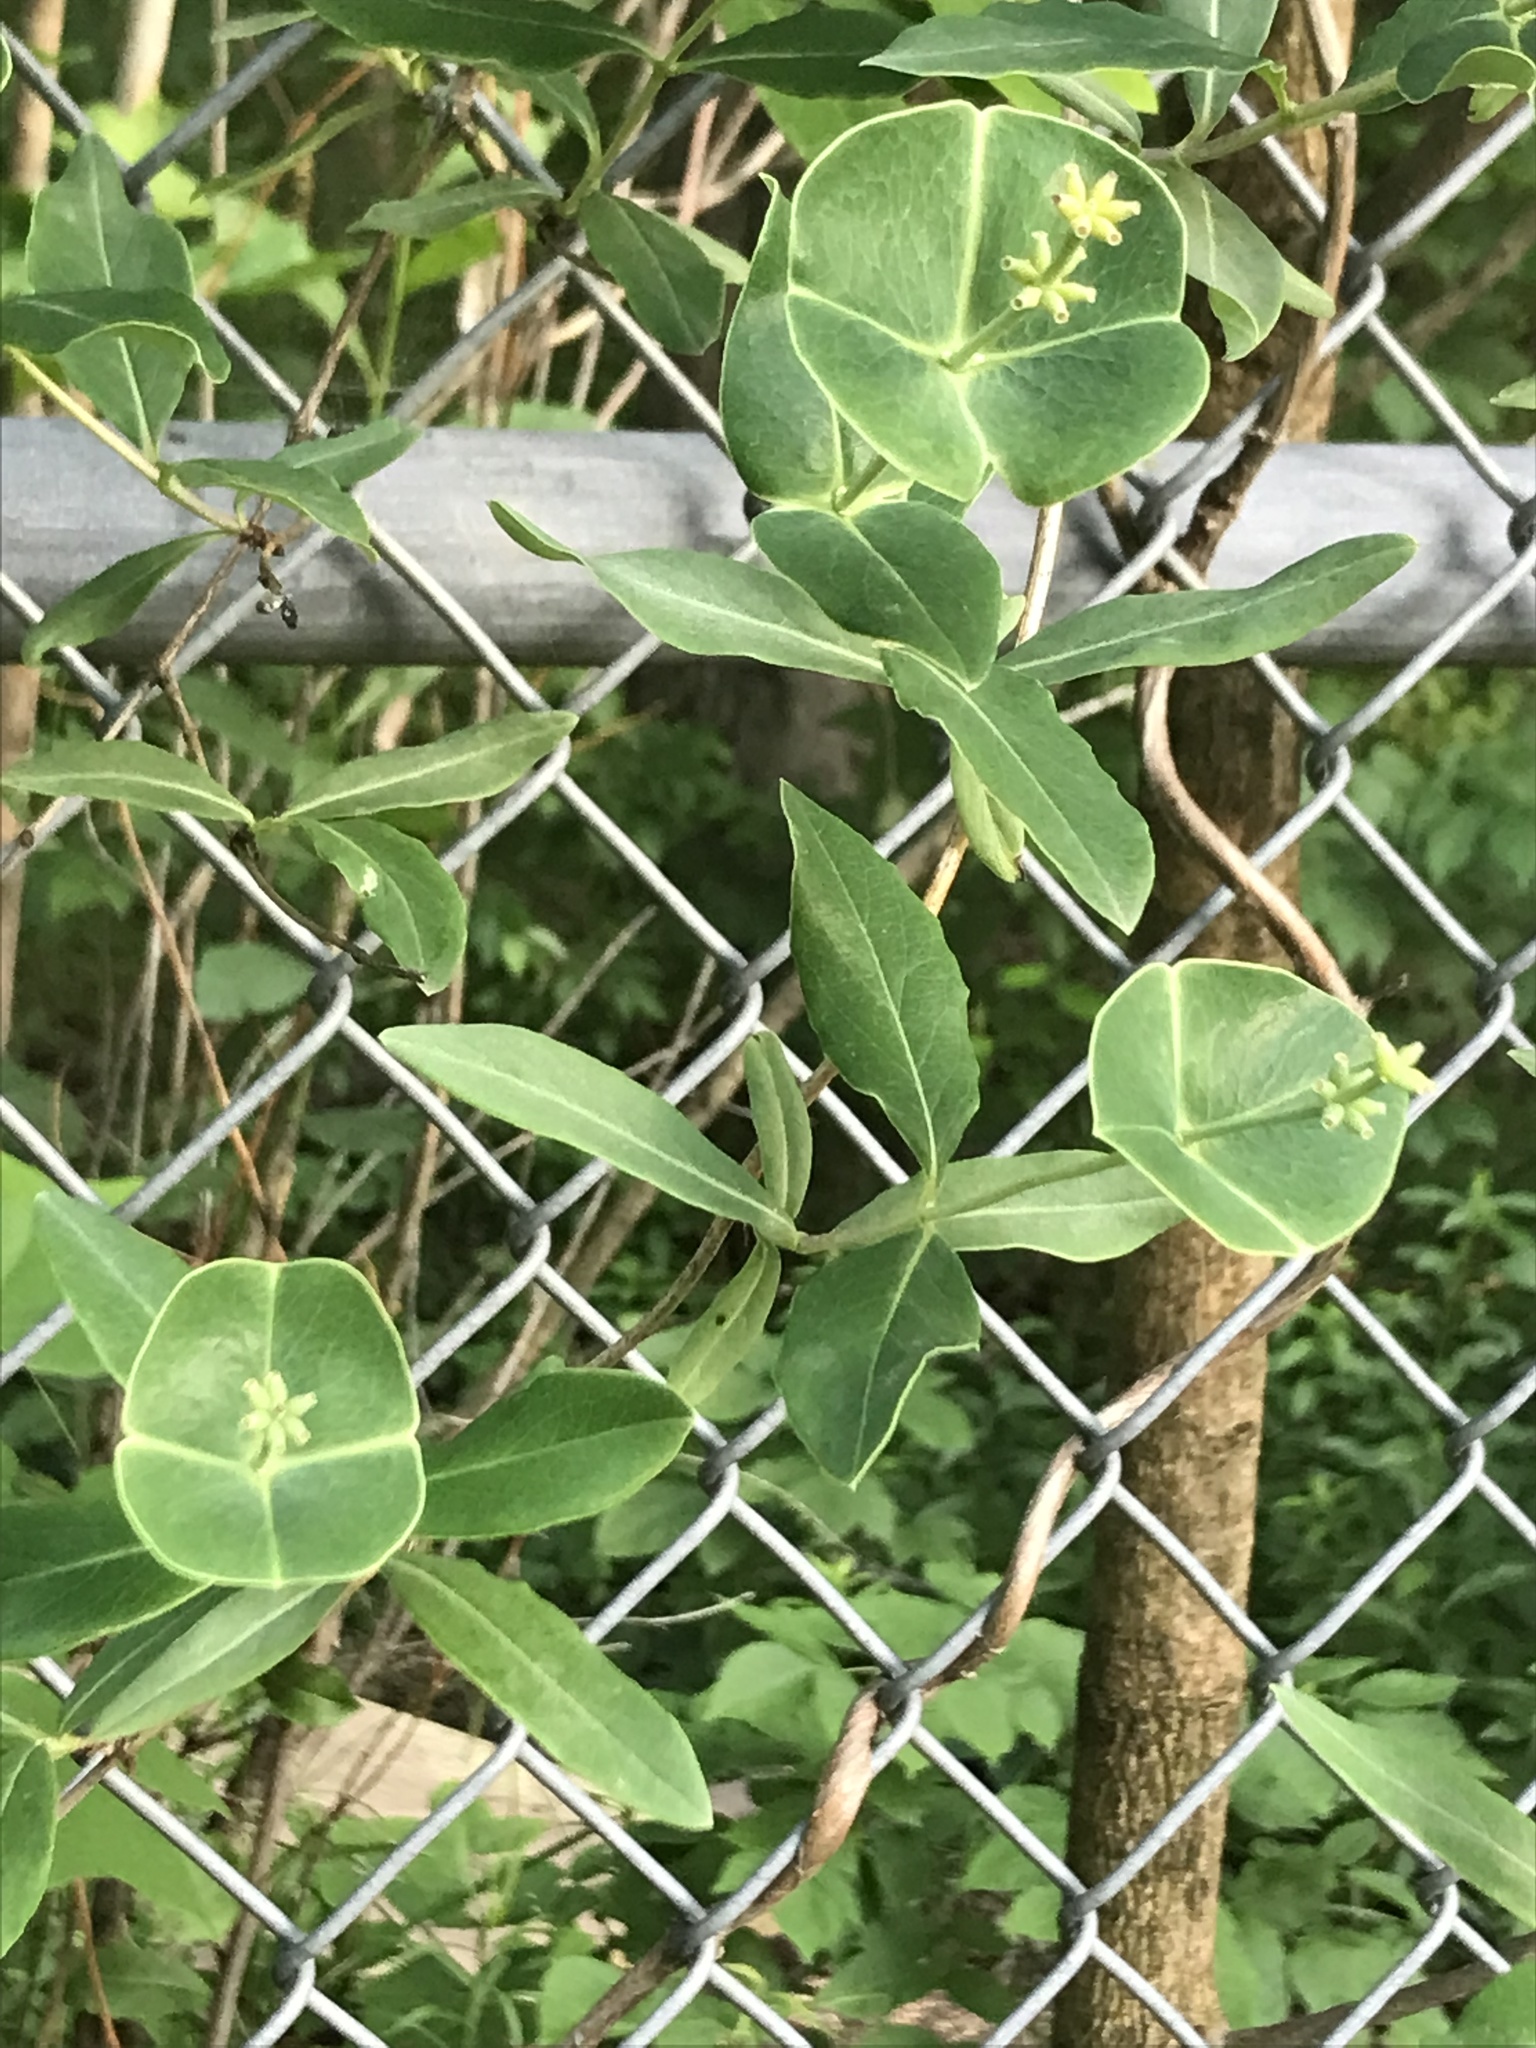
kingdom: Plantae
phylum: Tracheophyta
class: Magnoliopsida
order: Dipsacales
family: Caprifoliaceae
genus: Lonicera
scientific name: Lonicera sempervirens
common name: Coral honeysuckle
